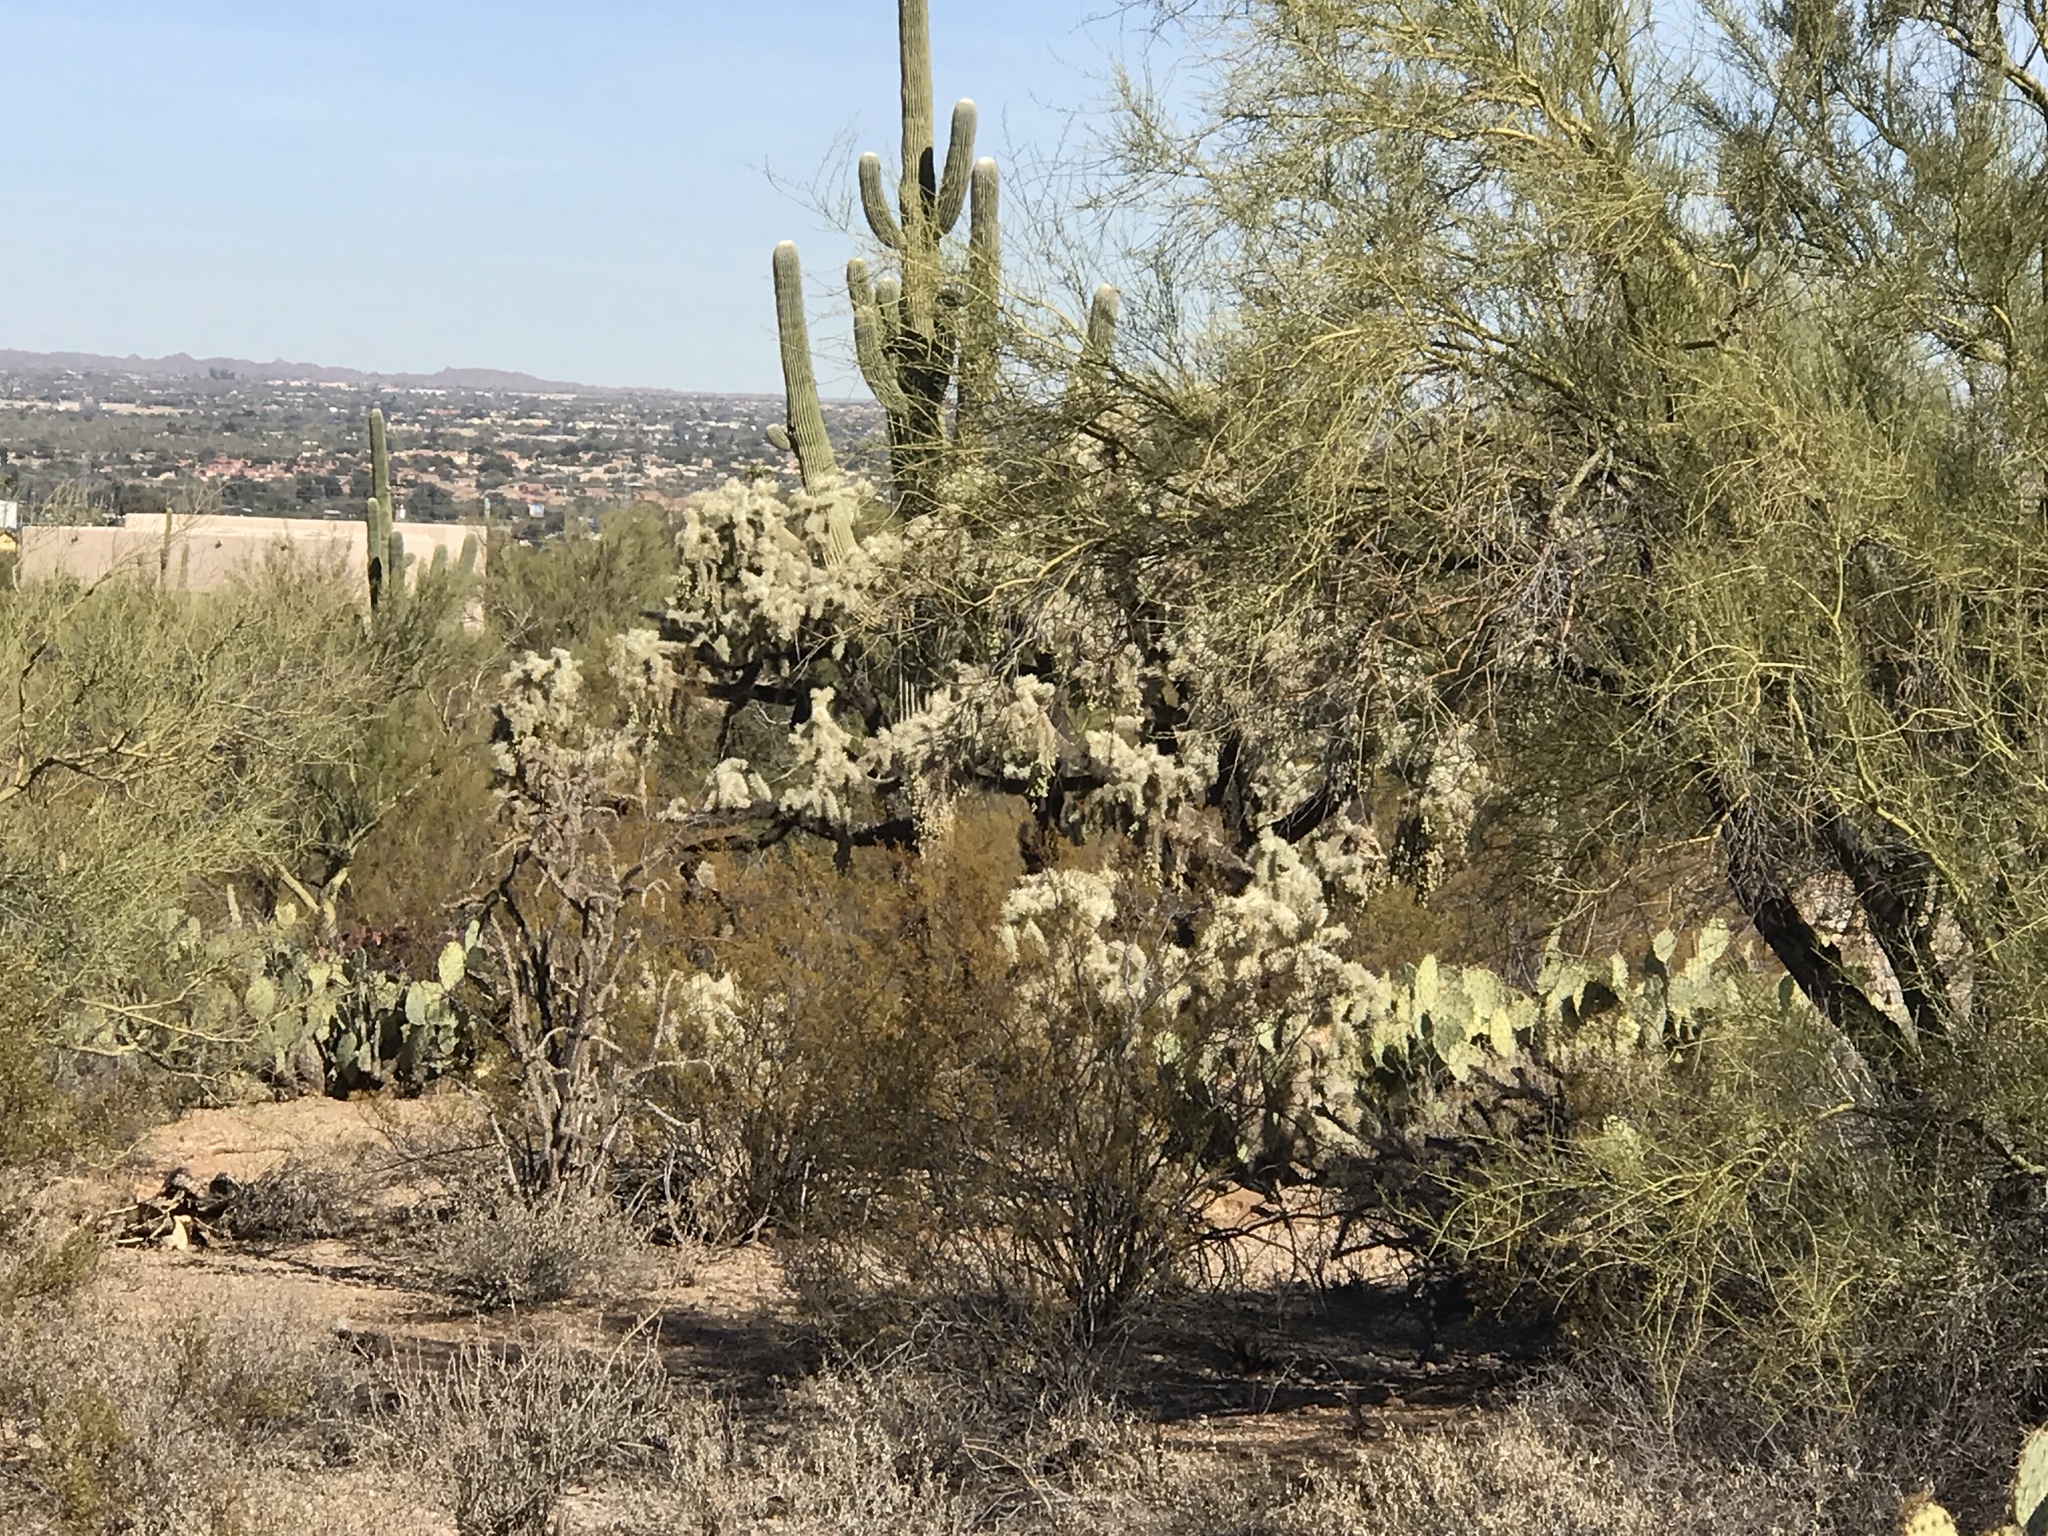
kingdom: Plantae
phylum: Tracheophyta
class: Magnoliopsida
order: Zygophyllales
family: Zygophyllaceae
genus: Larrea
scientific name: Larrea tridentata
